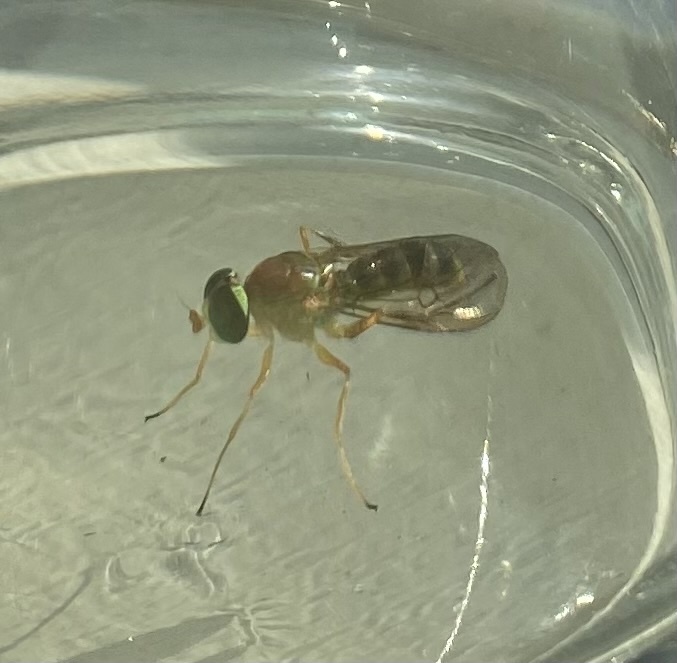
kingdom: Animalia
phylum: Arthropoda
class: Insecta
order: Diptera
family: Stratiomyidae
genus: Ptecticus
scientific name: Ptecticus trivittatus
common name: Compost fly
